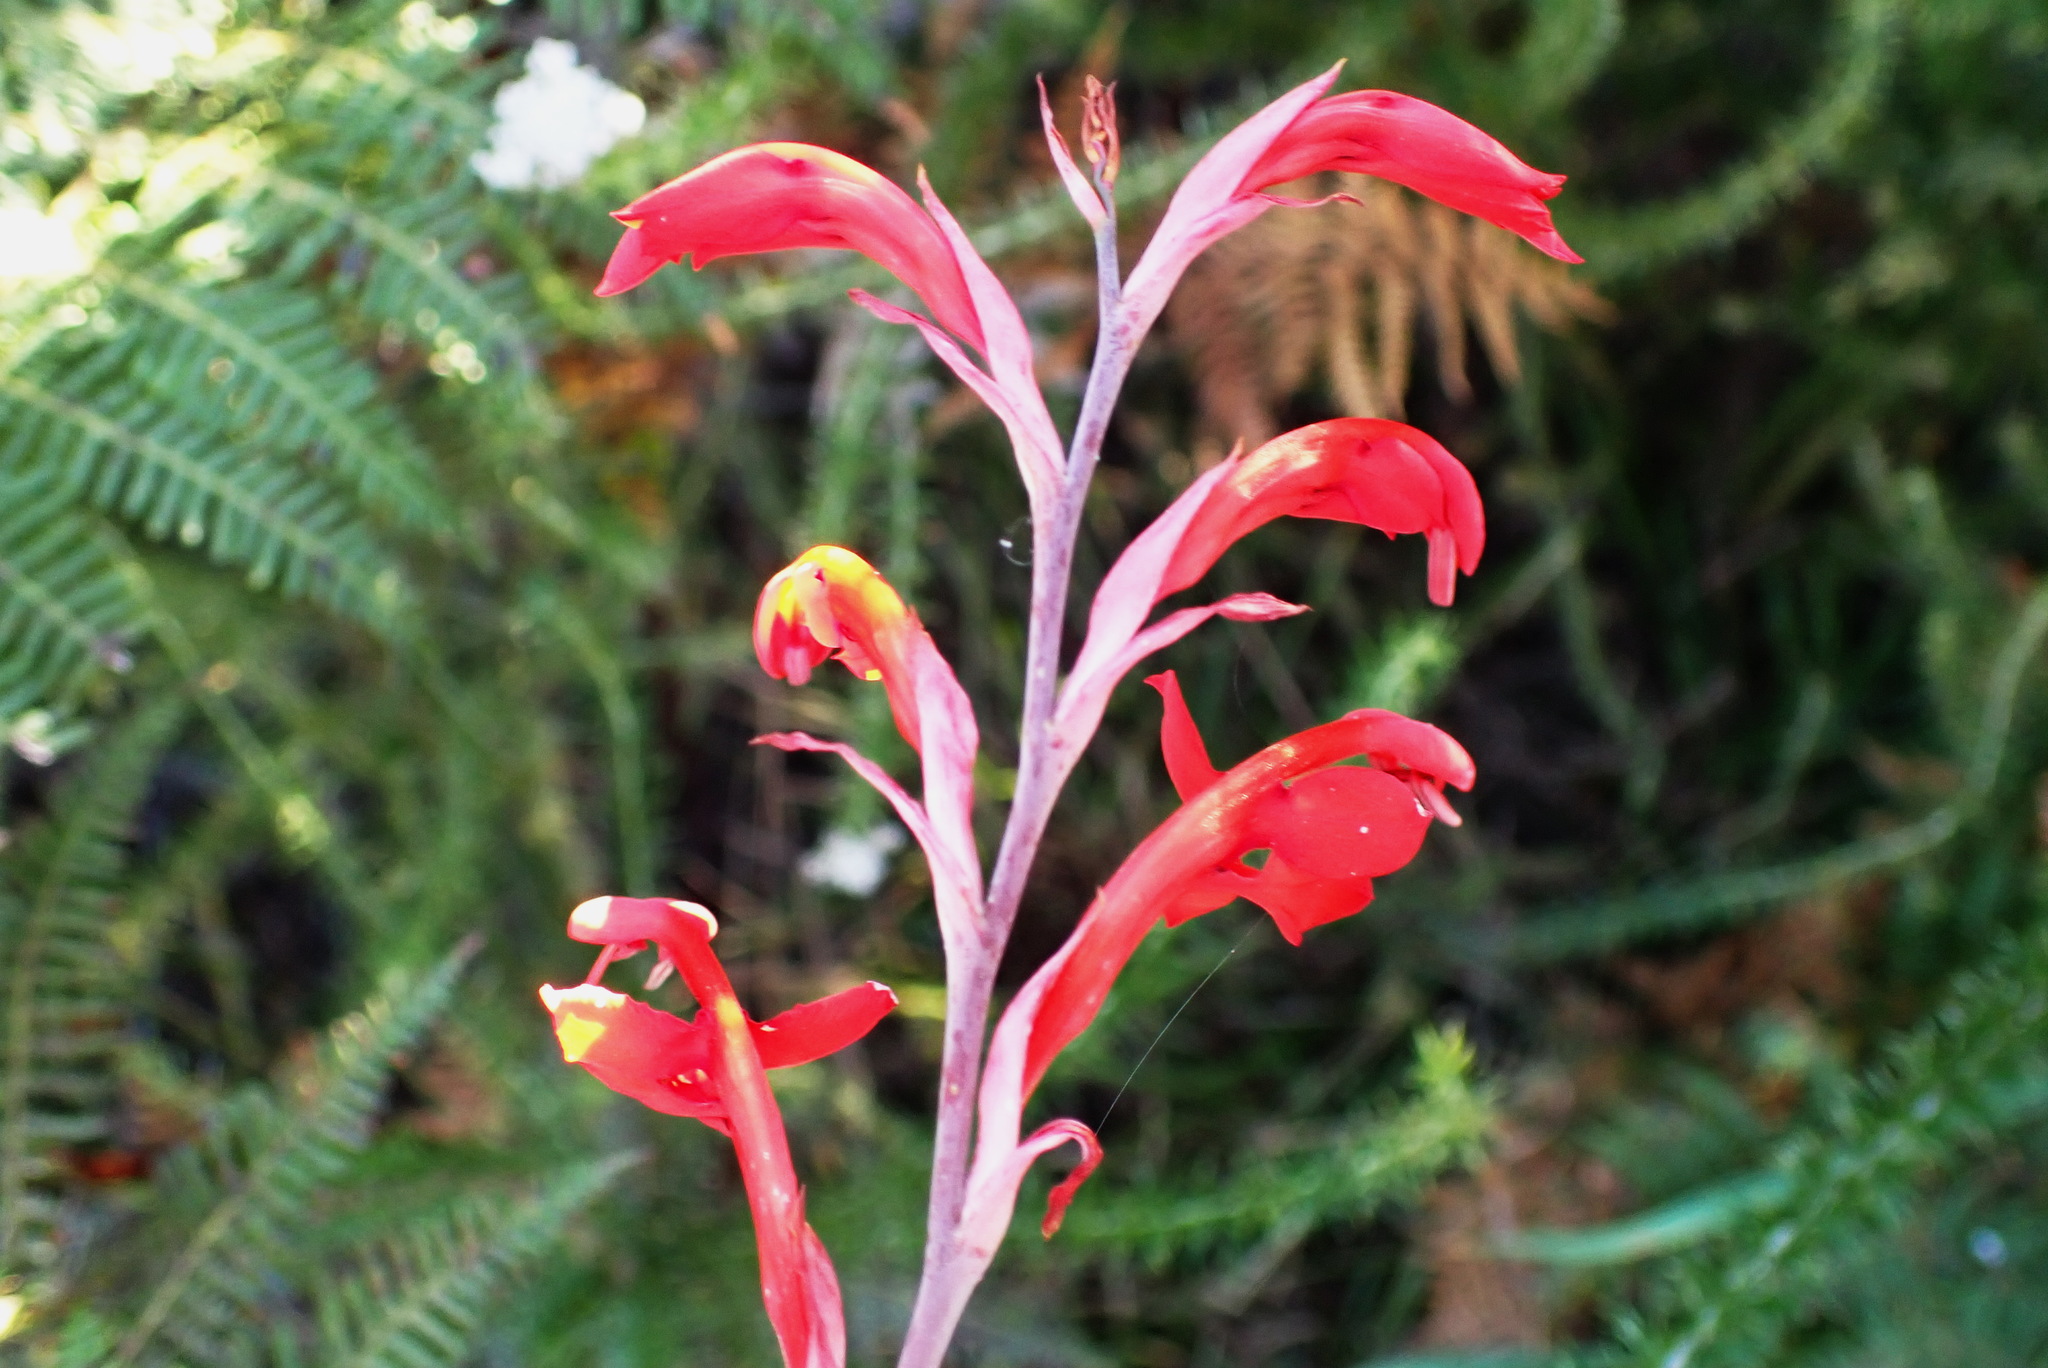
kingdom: Plantae
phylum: Tracheophyta
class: Liliopsida
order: Asparagales
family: Iridaceae
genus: Tritoniopsis
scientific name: Tritoniopsis caffra
